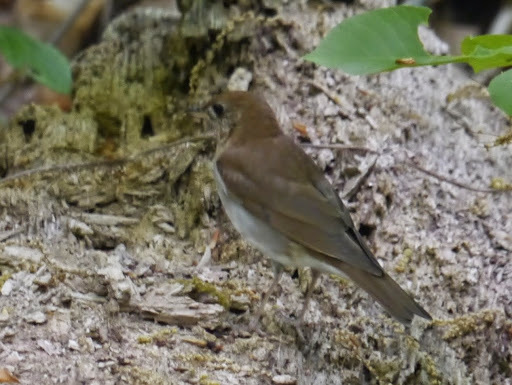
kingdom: Animalia
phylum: Chordata
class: Aves
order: Passeriformes
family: Turdidae
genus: Catharus
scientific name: Catharus fuscescens
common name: Veery
